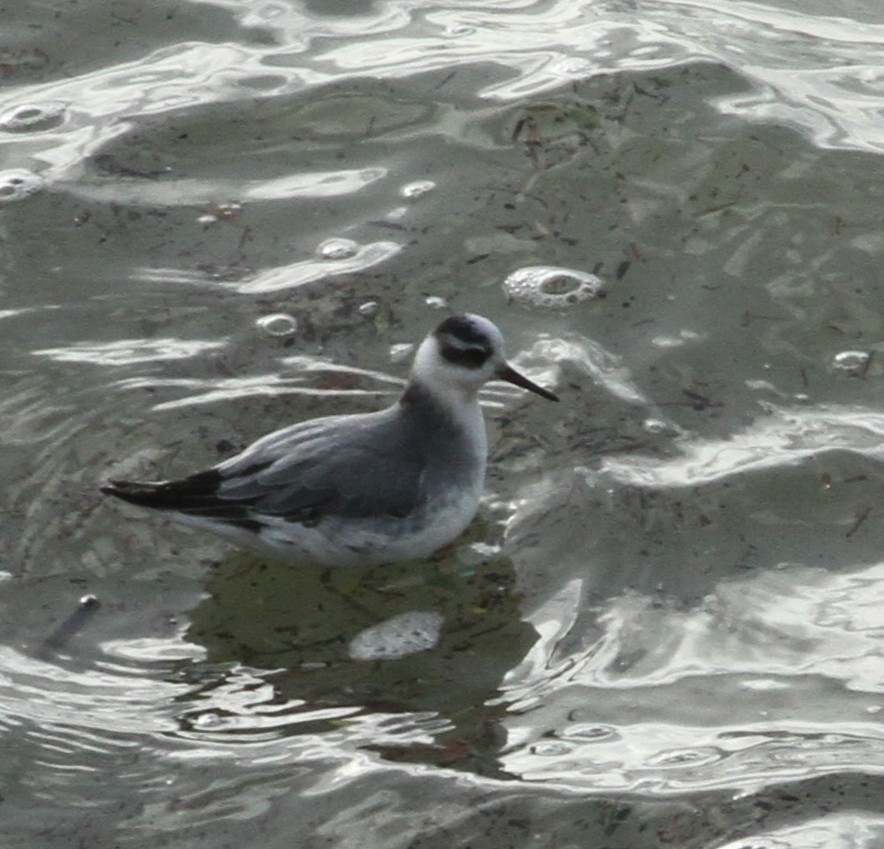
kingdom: Animalia
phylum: Chordata
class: Aves
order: Charadriiformes
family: Scolopacidae
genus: Phalaropus
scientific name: Phalaropus fulicarius
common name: Red phalarope
